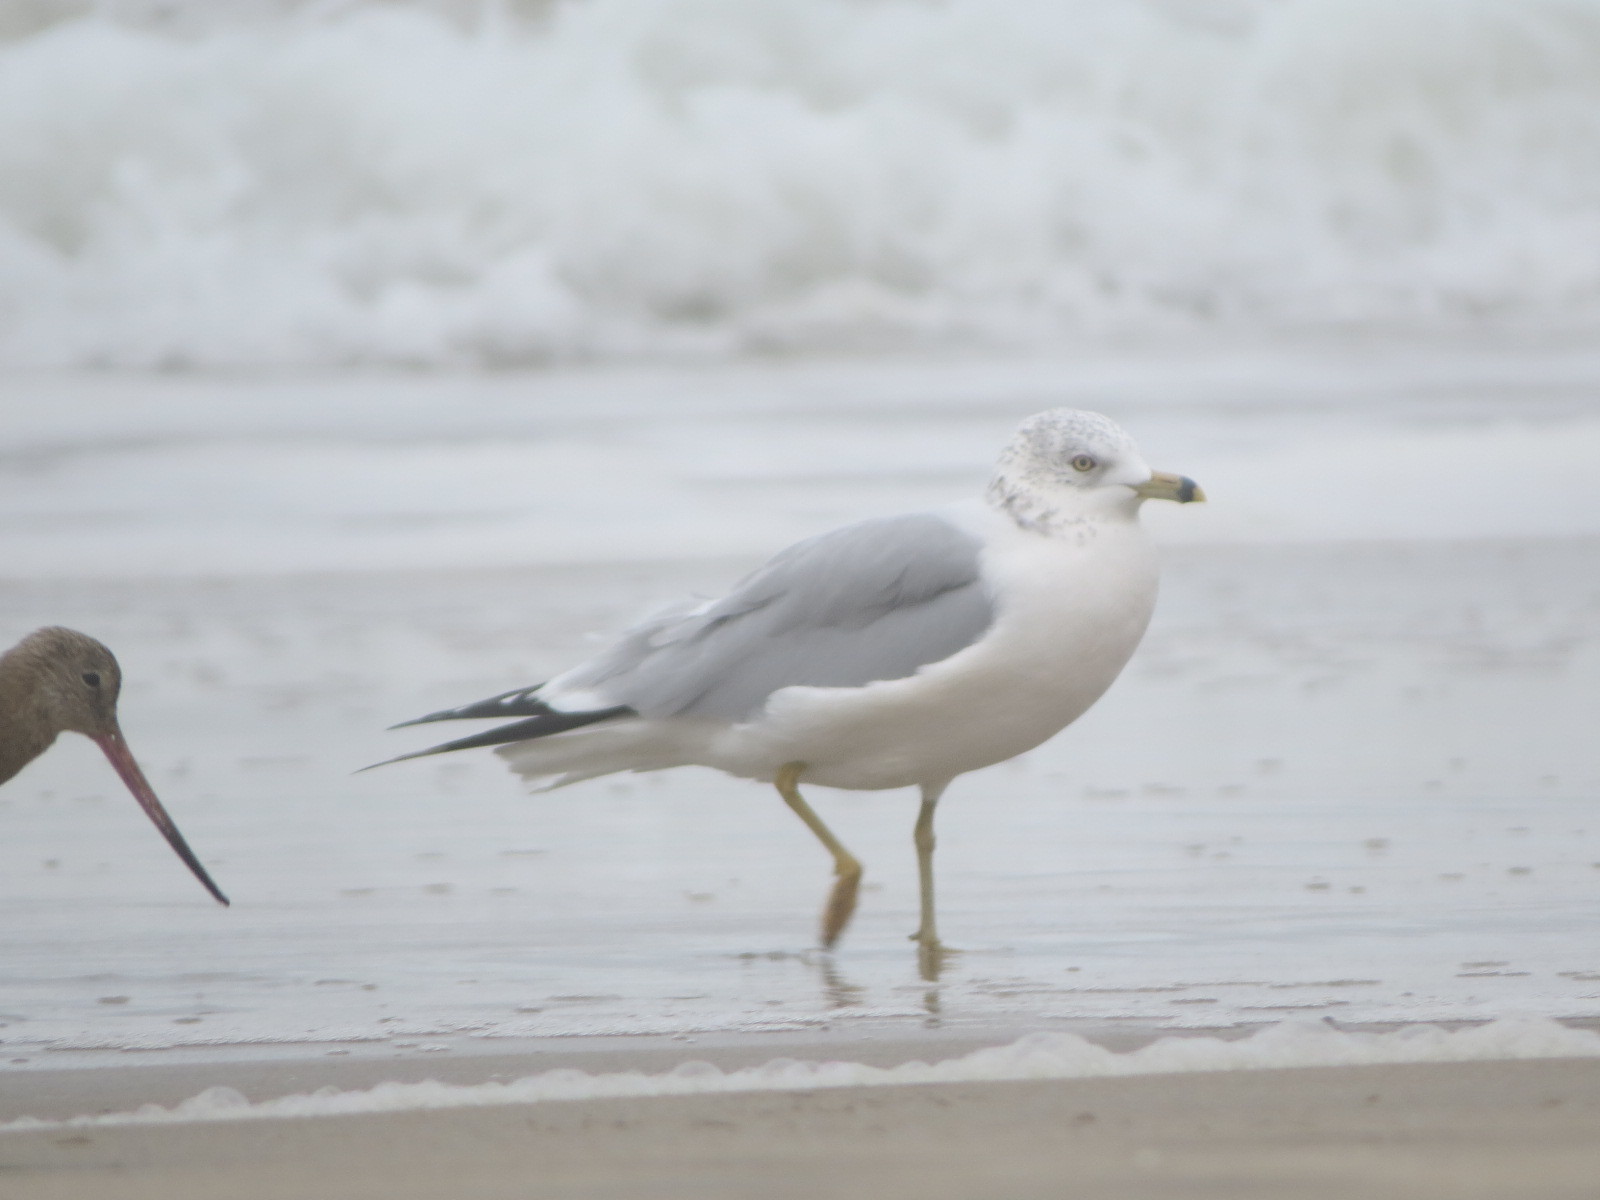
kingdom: Animalia
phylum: Chordata
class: Aves
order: Charadriiformes
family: Laridae
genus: Larus
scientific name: Larus delawarensis
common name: Ring-billed gull
